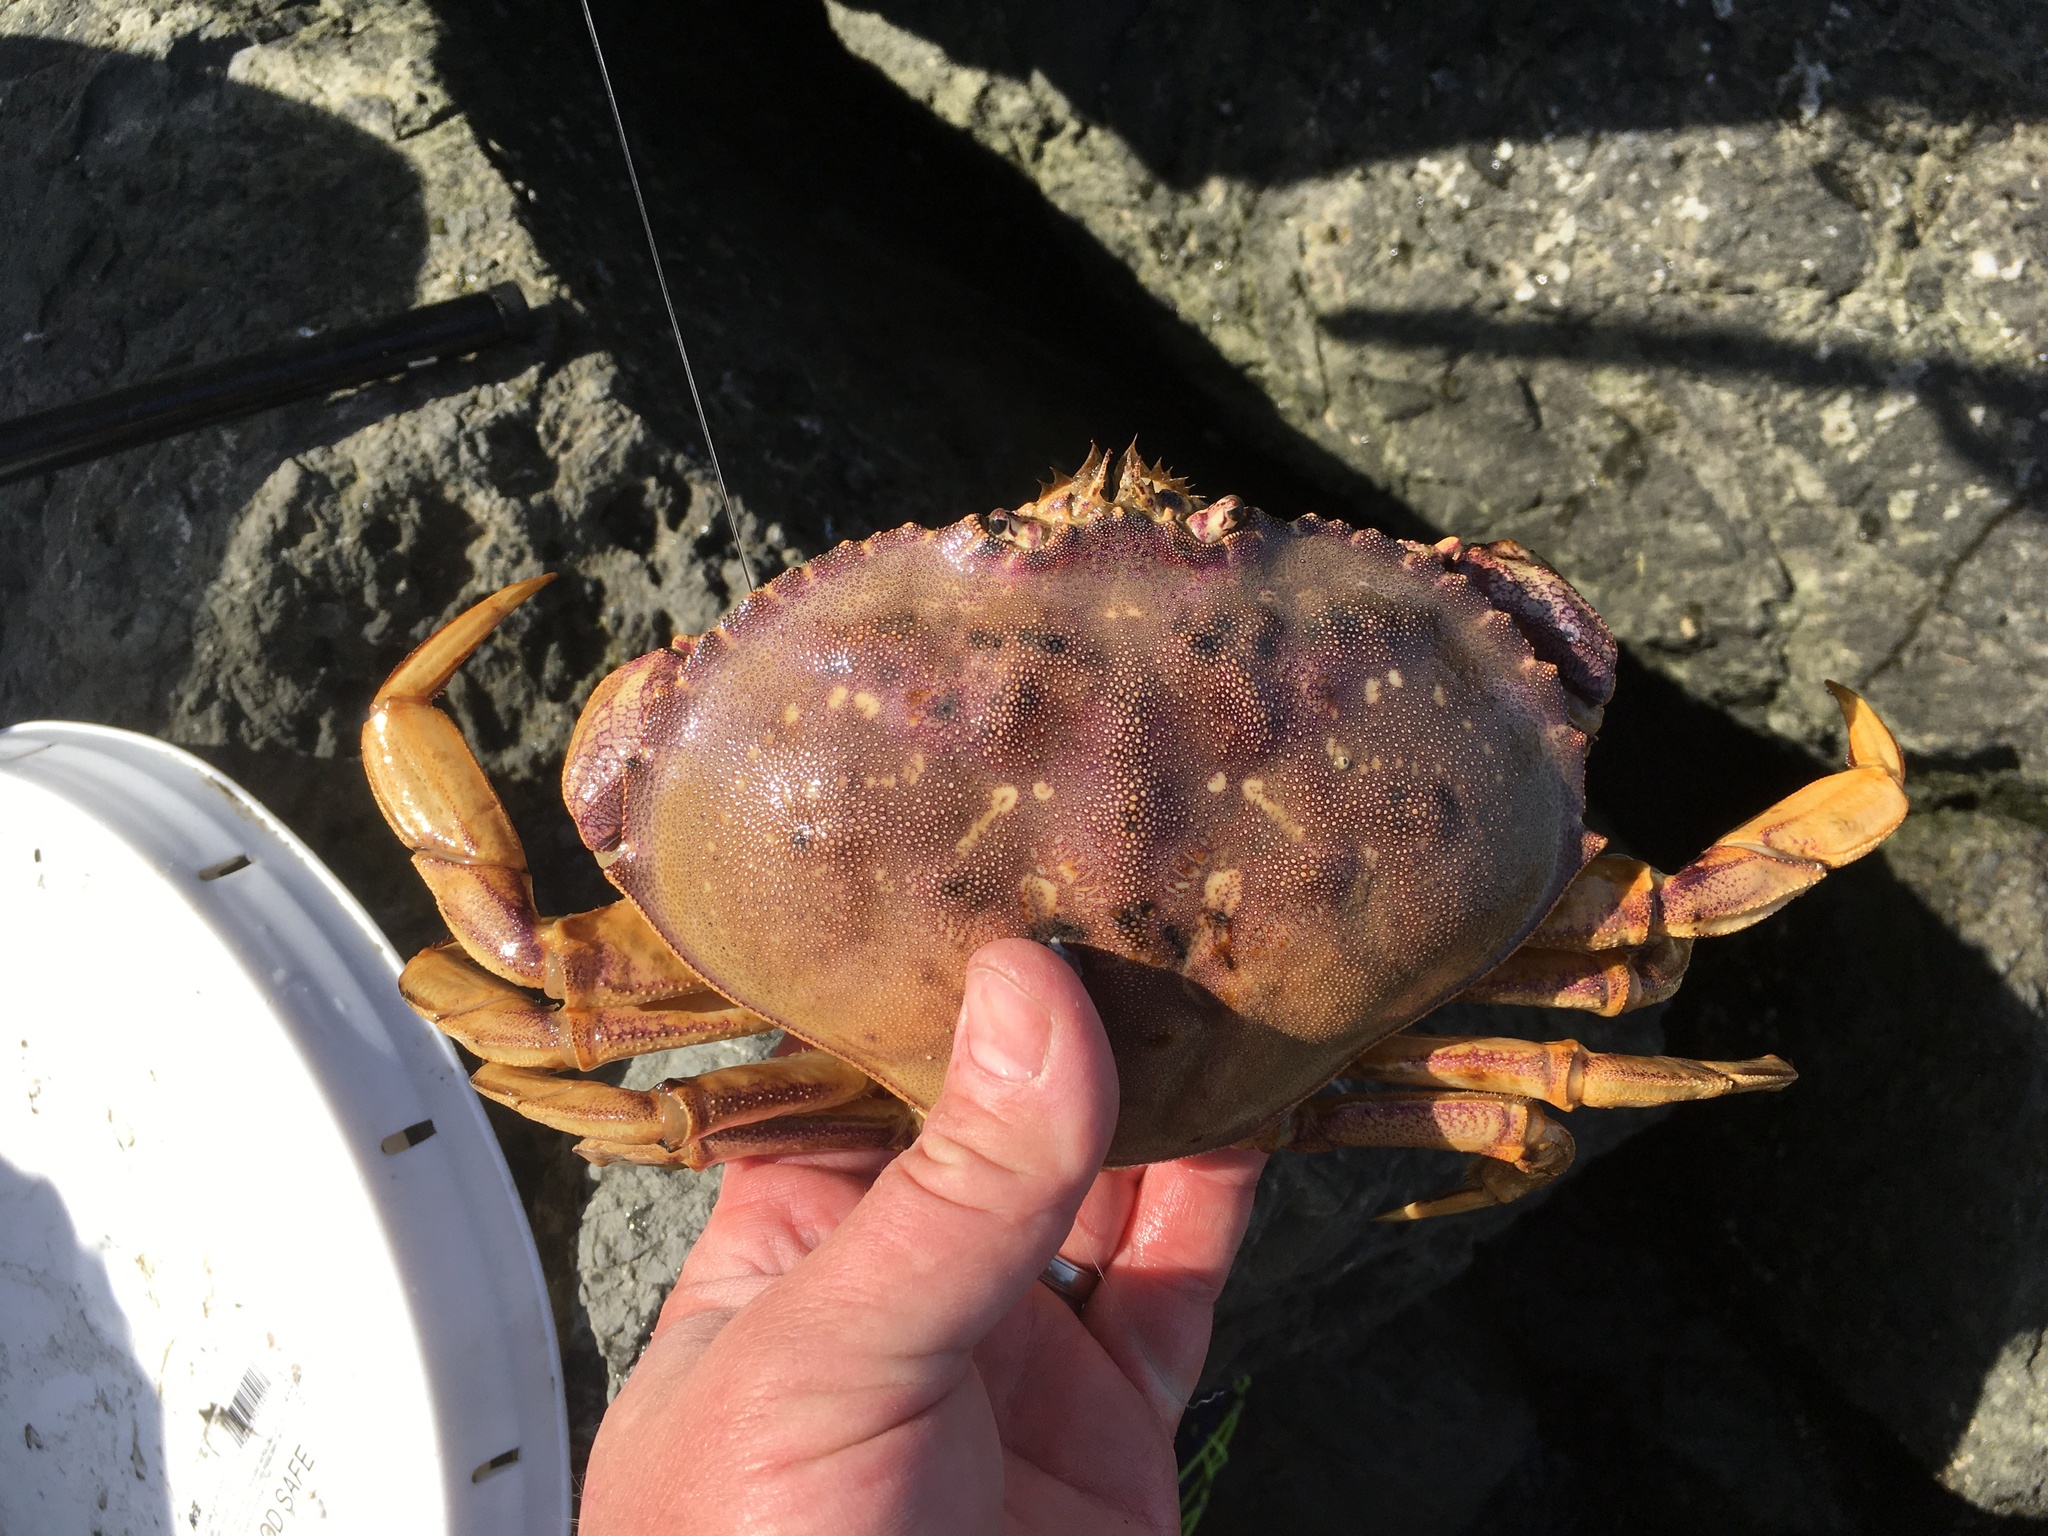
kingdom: Animalia
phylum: Arthropoda
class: Malacostraca
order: Decapoda
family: Cancridae
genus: Metacarcinus
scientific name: Metacarcinus magister
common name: Californian crab
